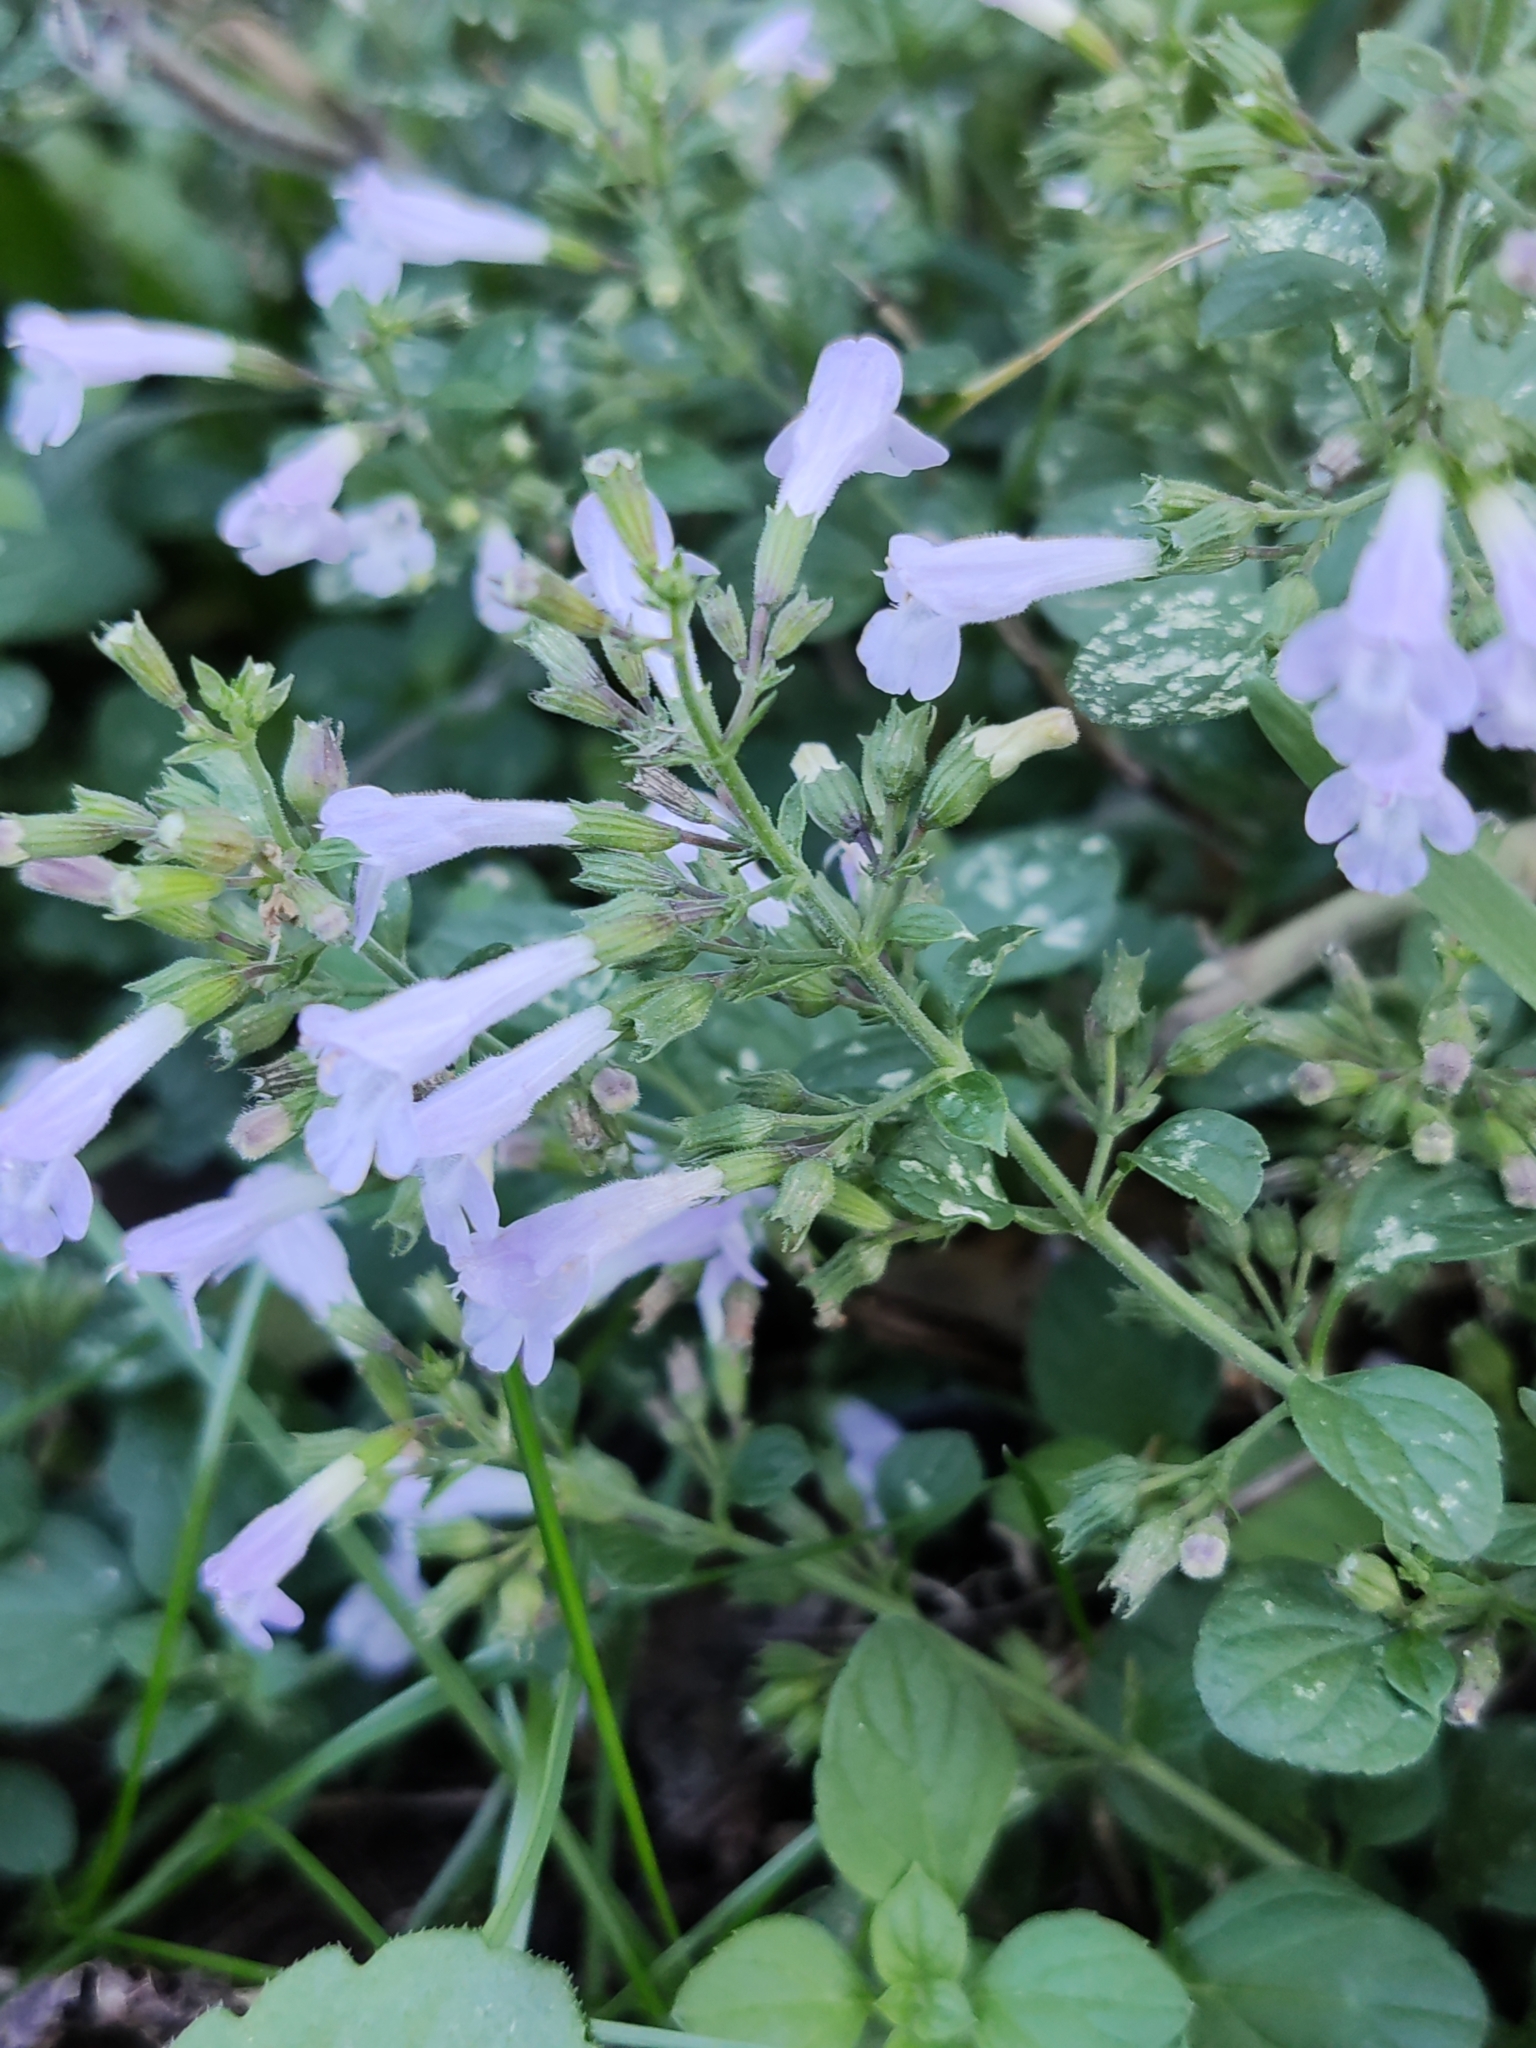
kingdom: Plantae
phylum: Tracheophyta
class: Magnoliopsida
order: Lamiales
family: Lamiaceae
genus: Clinopodium
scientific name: Clinopodium nepeta
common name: Lesser calamint
